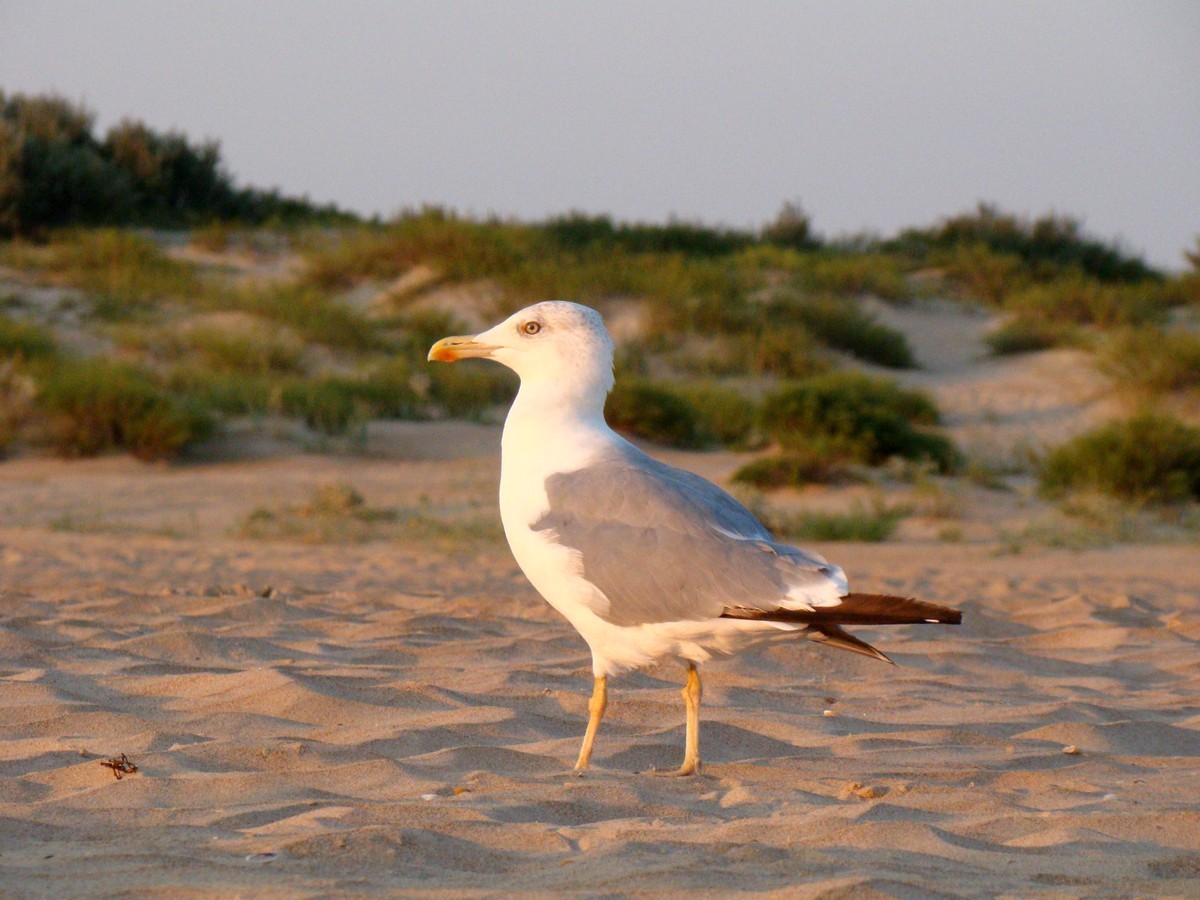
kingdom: Animalia
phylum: Chordata
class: Aves
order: Charadriiformes
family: Laridae
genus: Larus
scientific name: Larus michahellis
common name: Yellow-legged gull
